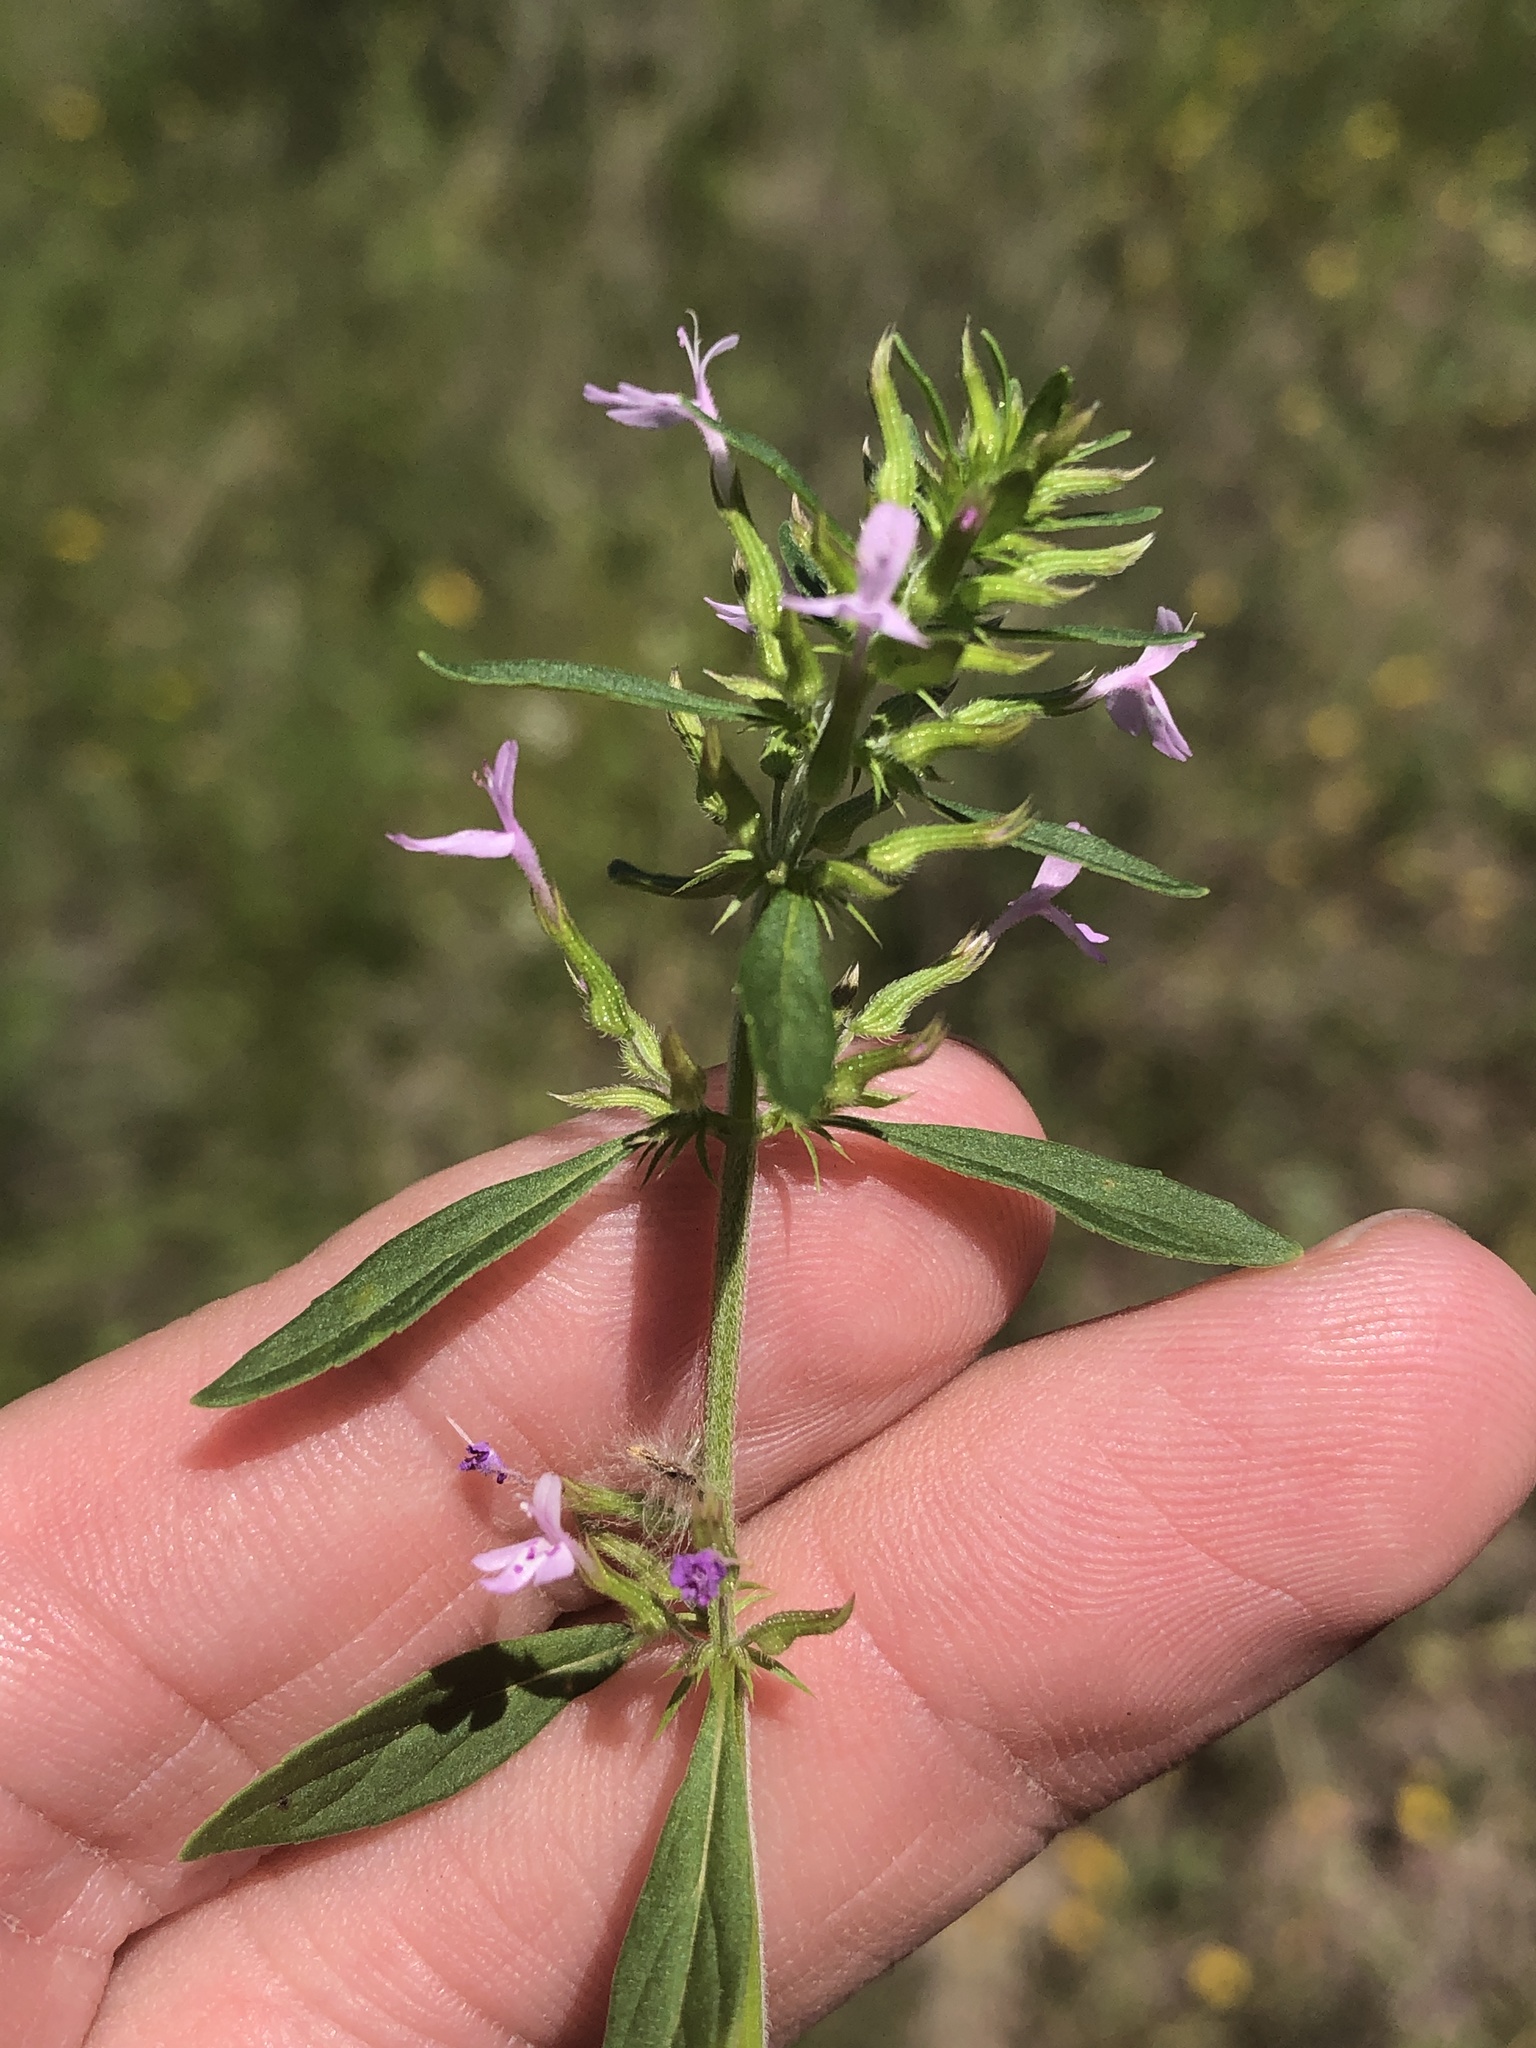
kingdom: Plantae
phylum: Tracheophyta
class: Magnoliopsida
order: Lamiales
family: Lamiaceae
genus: Hedeoma
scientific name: Hedeoma acinoides
